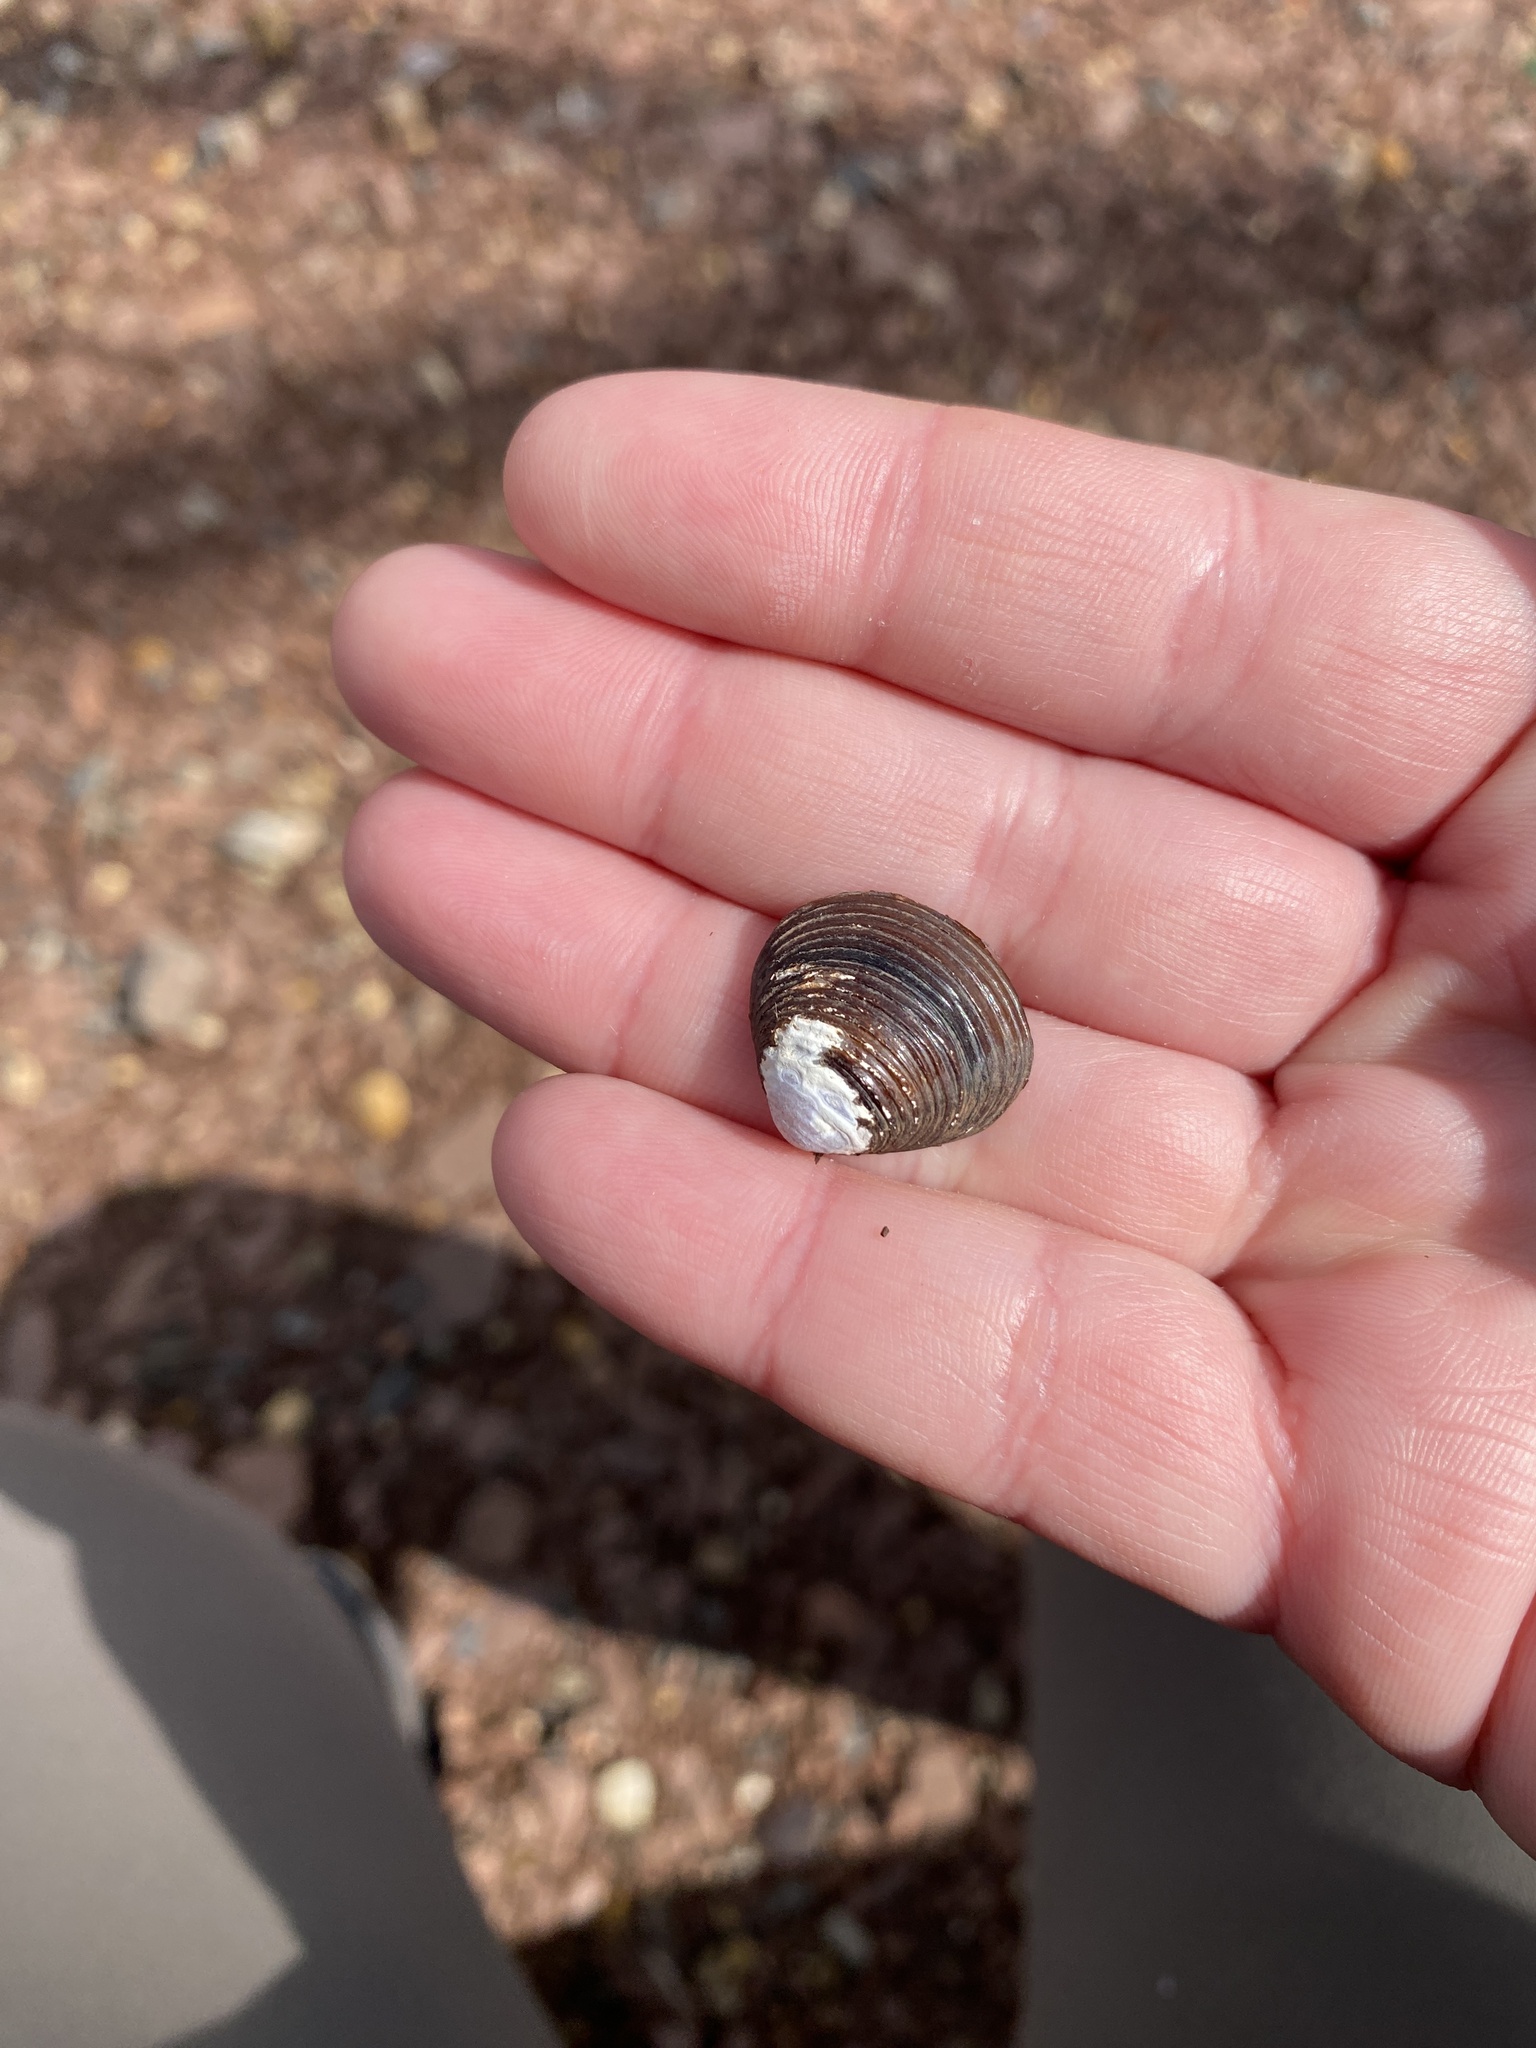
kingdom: Animalia
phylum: Mollusca
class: Bivalvia
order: Venerida
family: Cyrenidae
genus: Corbicula
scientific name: Corbicula fluminea
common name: Asian clam
